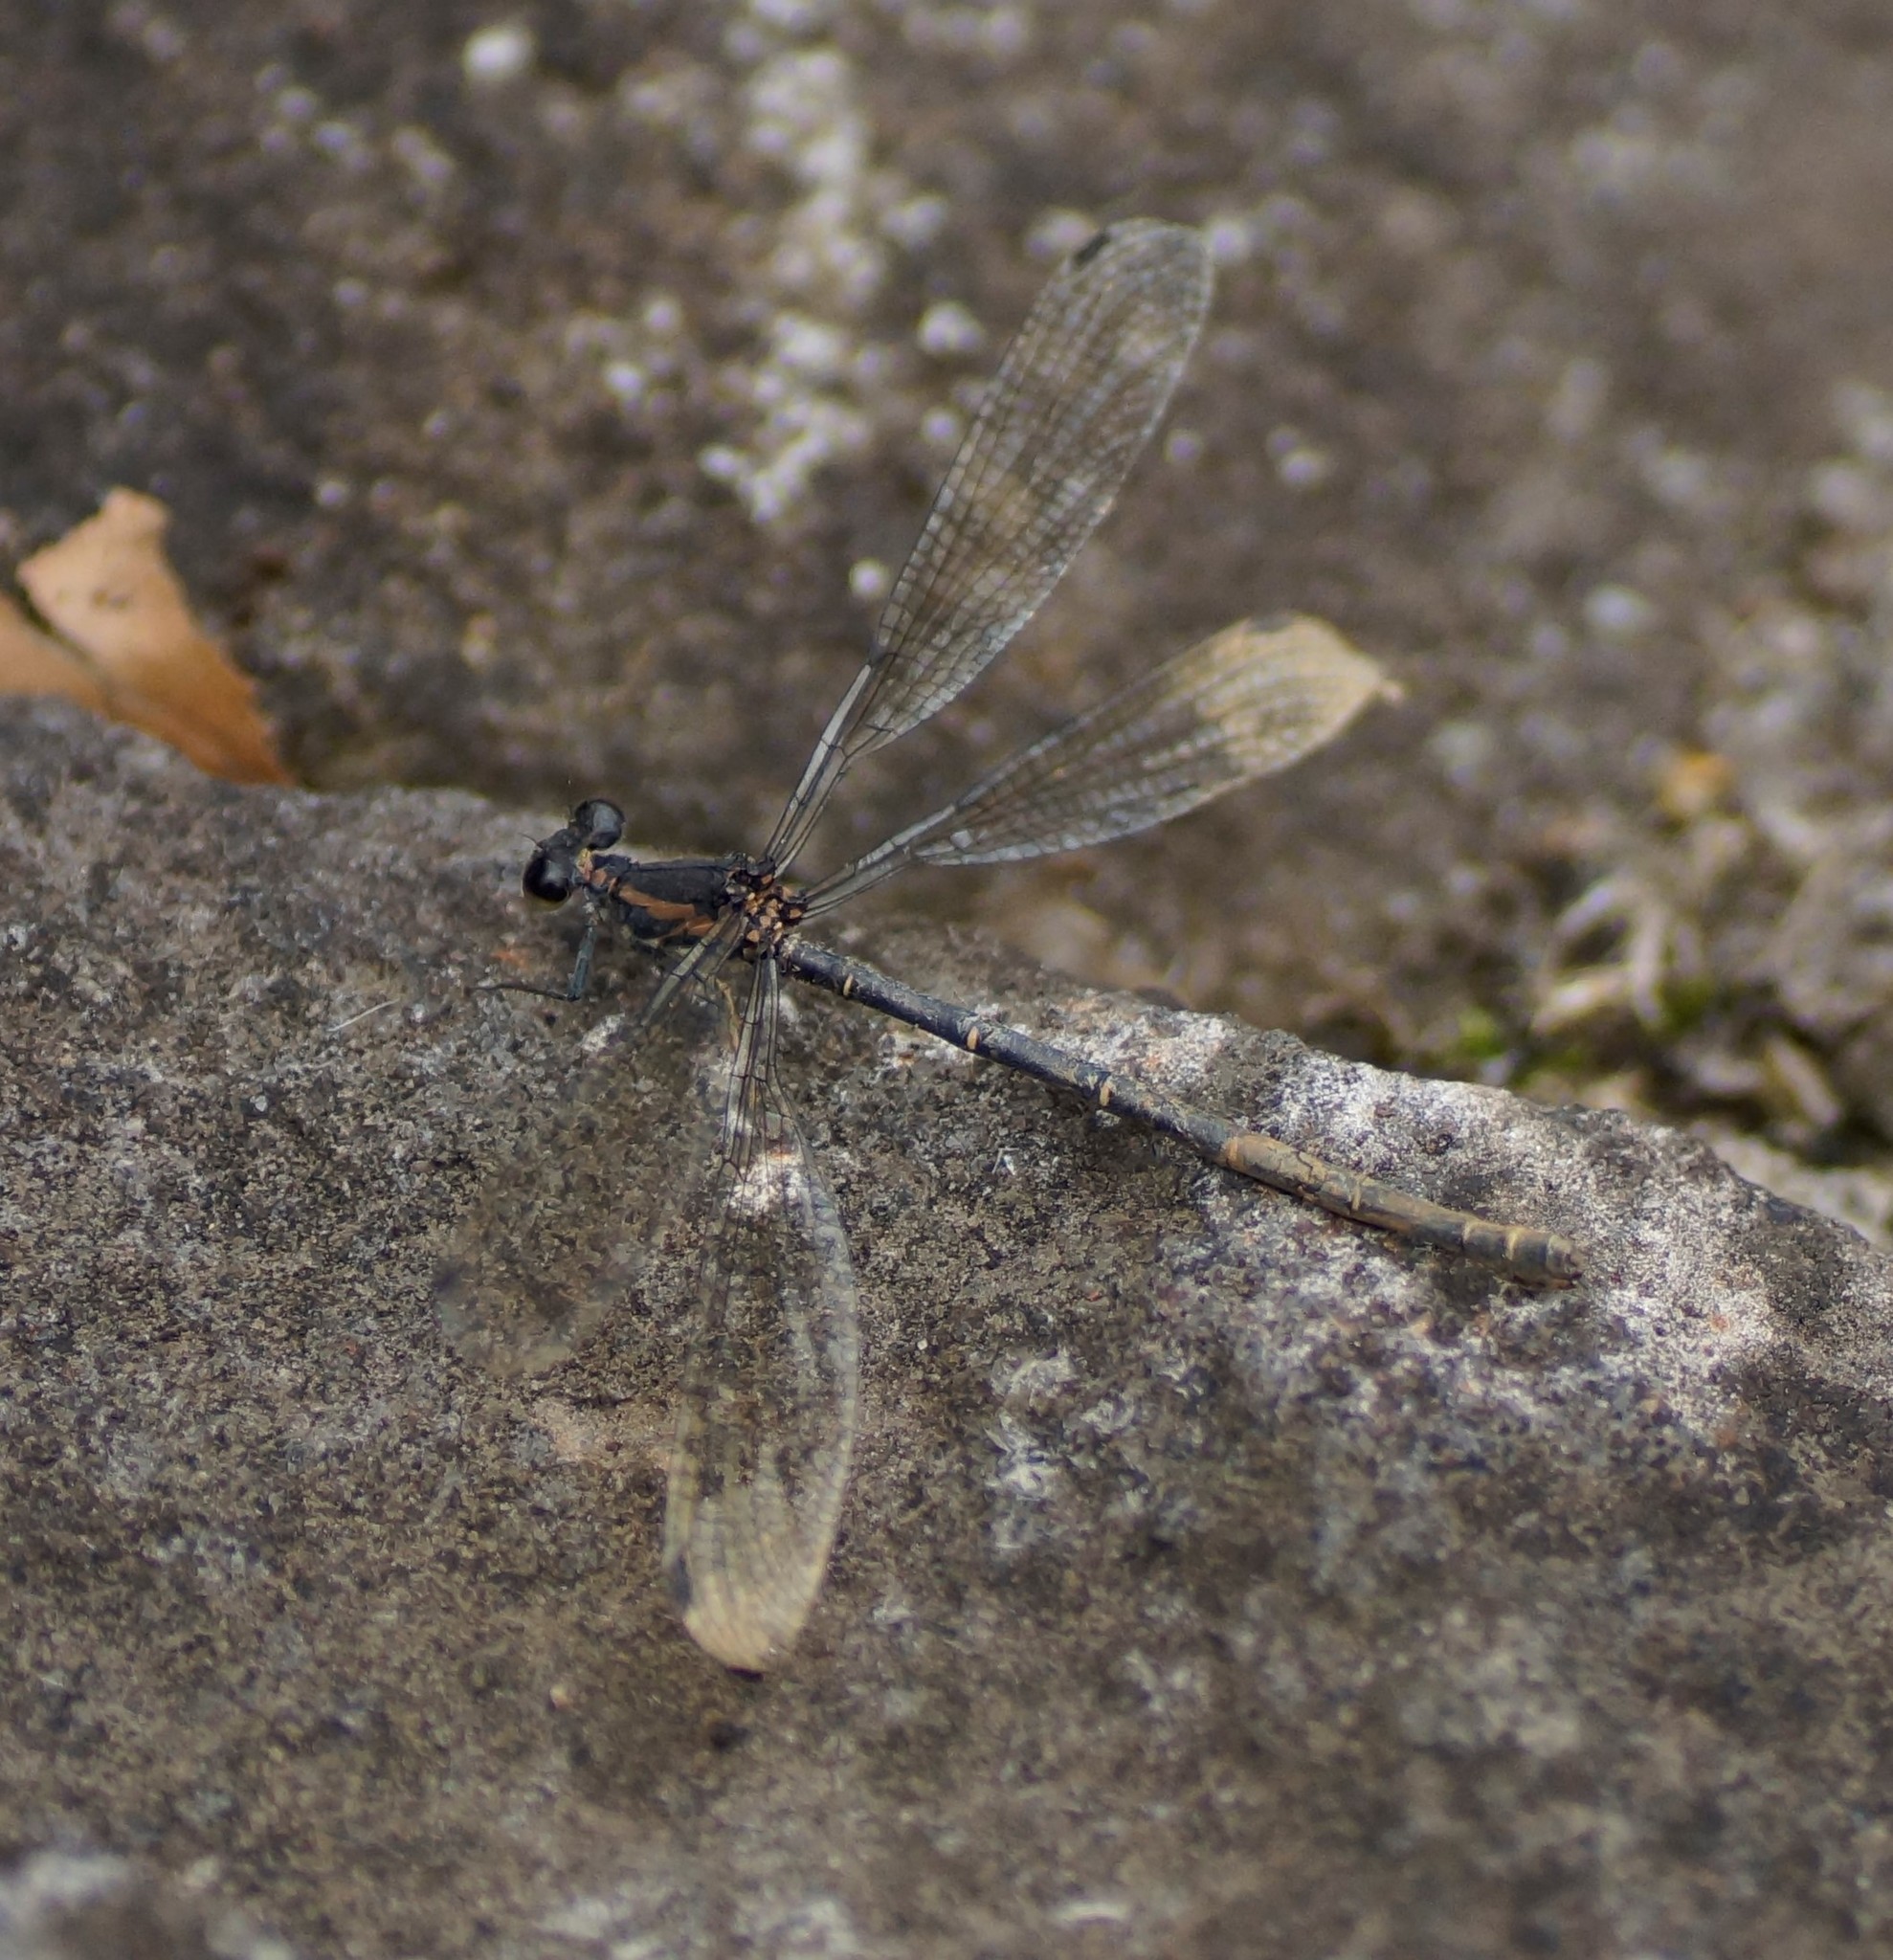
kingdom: Animalia
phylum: Arthropoda
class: Insecta
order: Odonata
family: Argiolestidae
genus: Austroargiolestes
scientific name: Austroargiolestes icteromelas
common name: Common flatwing
